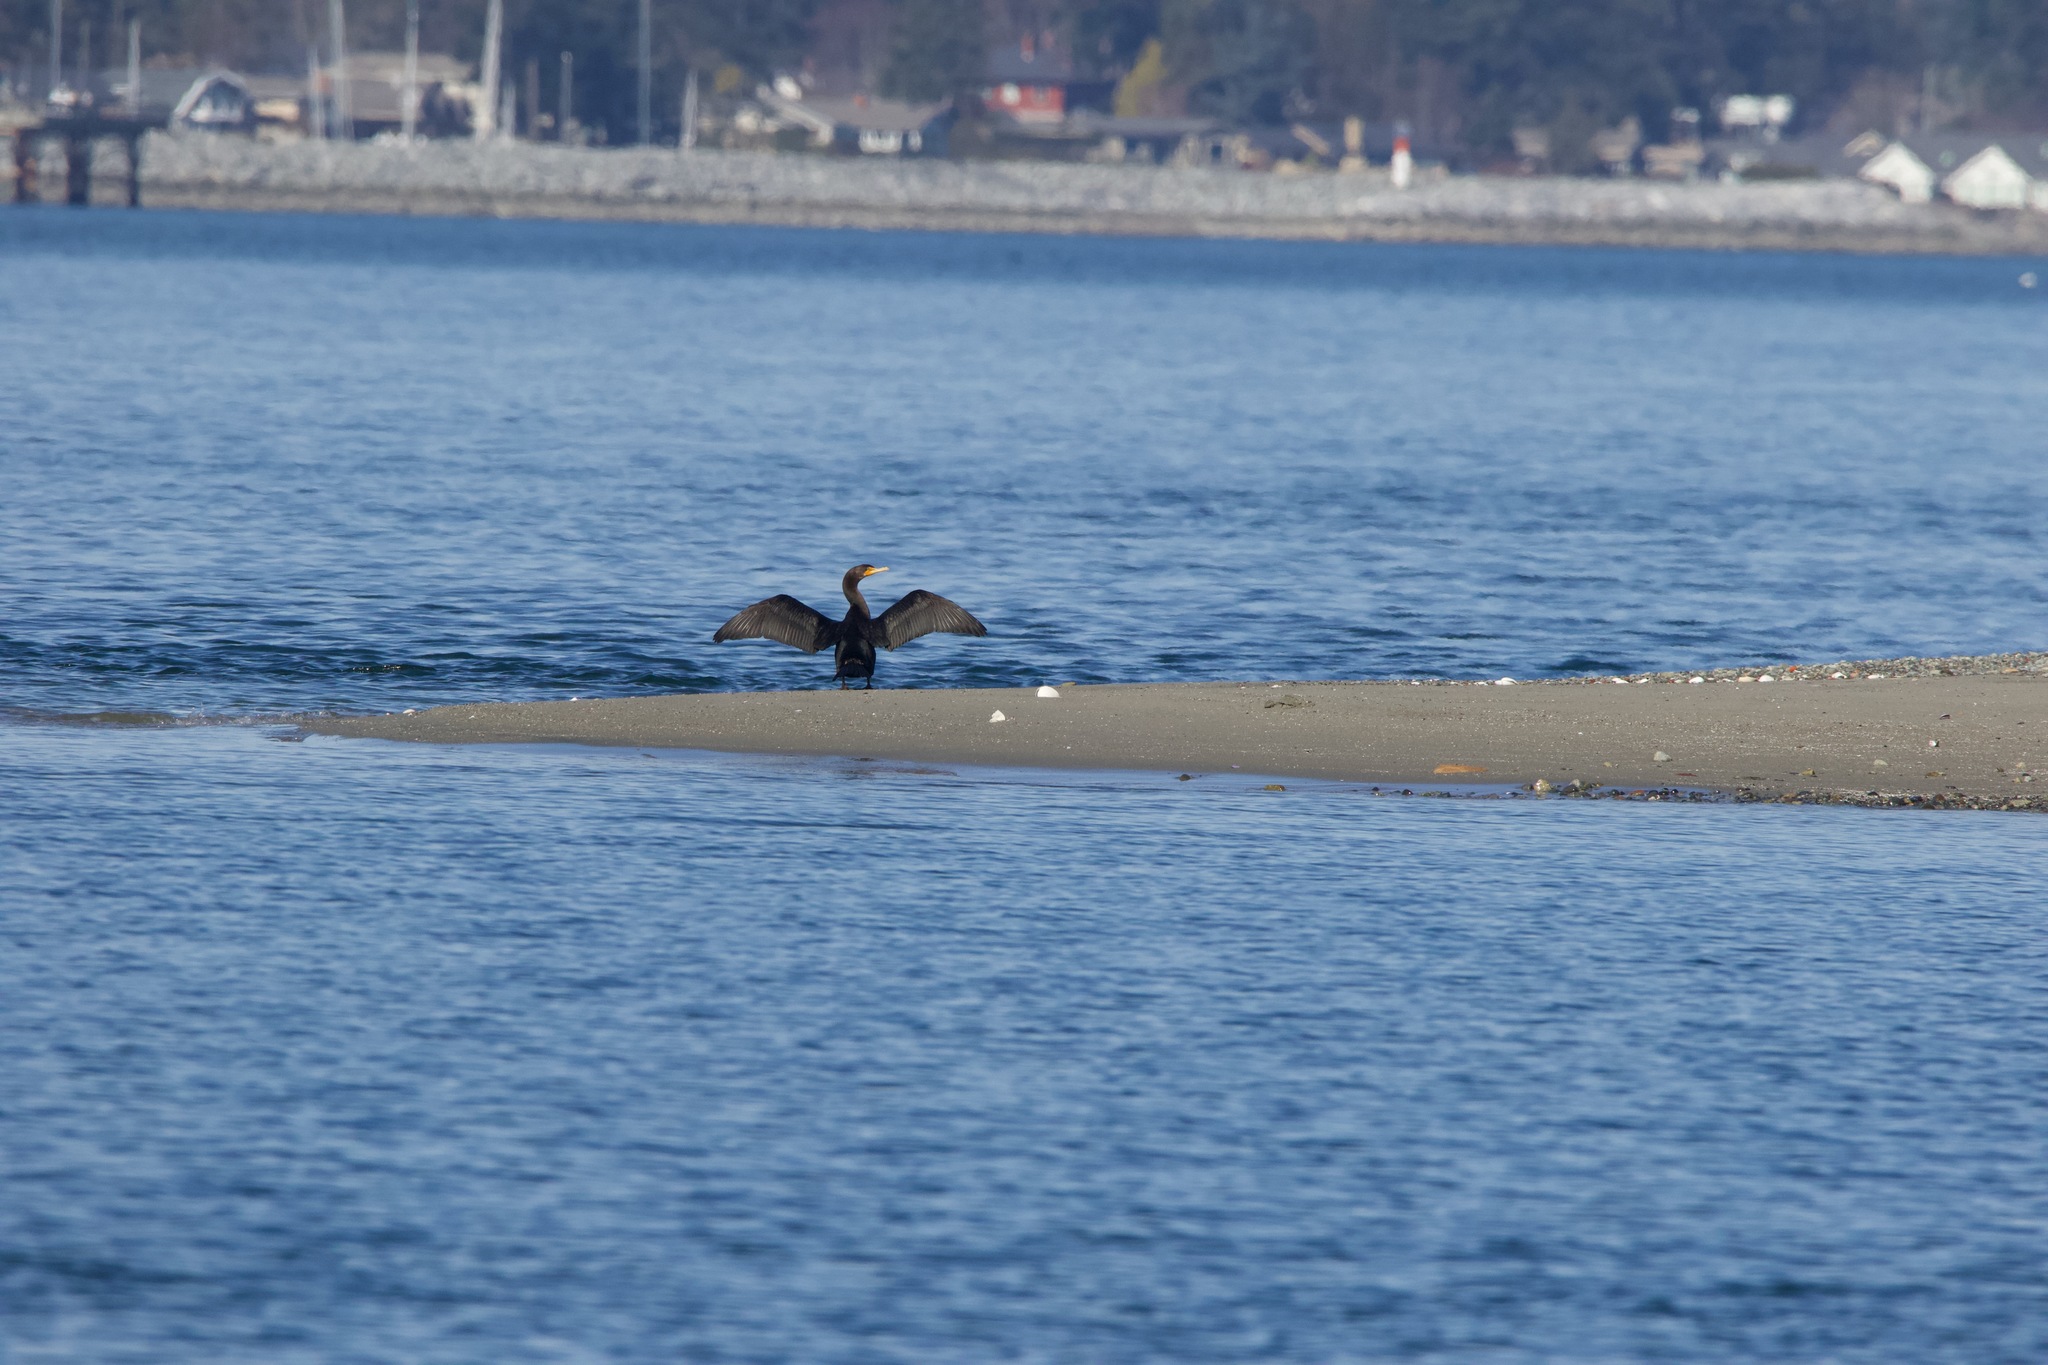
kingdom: Animalia
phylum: Chordata
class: Aves
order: Suliformes
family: Phalacrocoracidae
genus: Phalacrocorax
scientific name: Phalacrocorax auritus
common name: Double-crested cormorant
